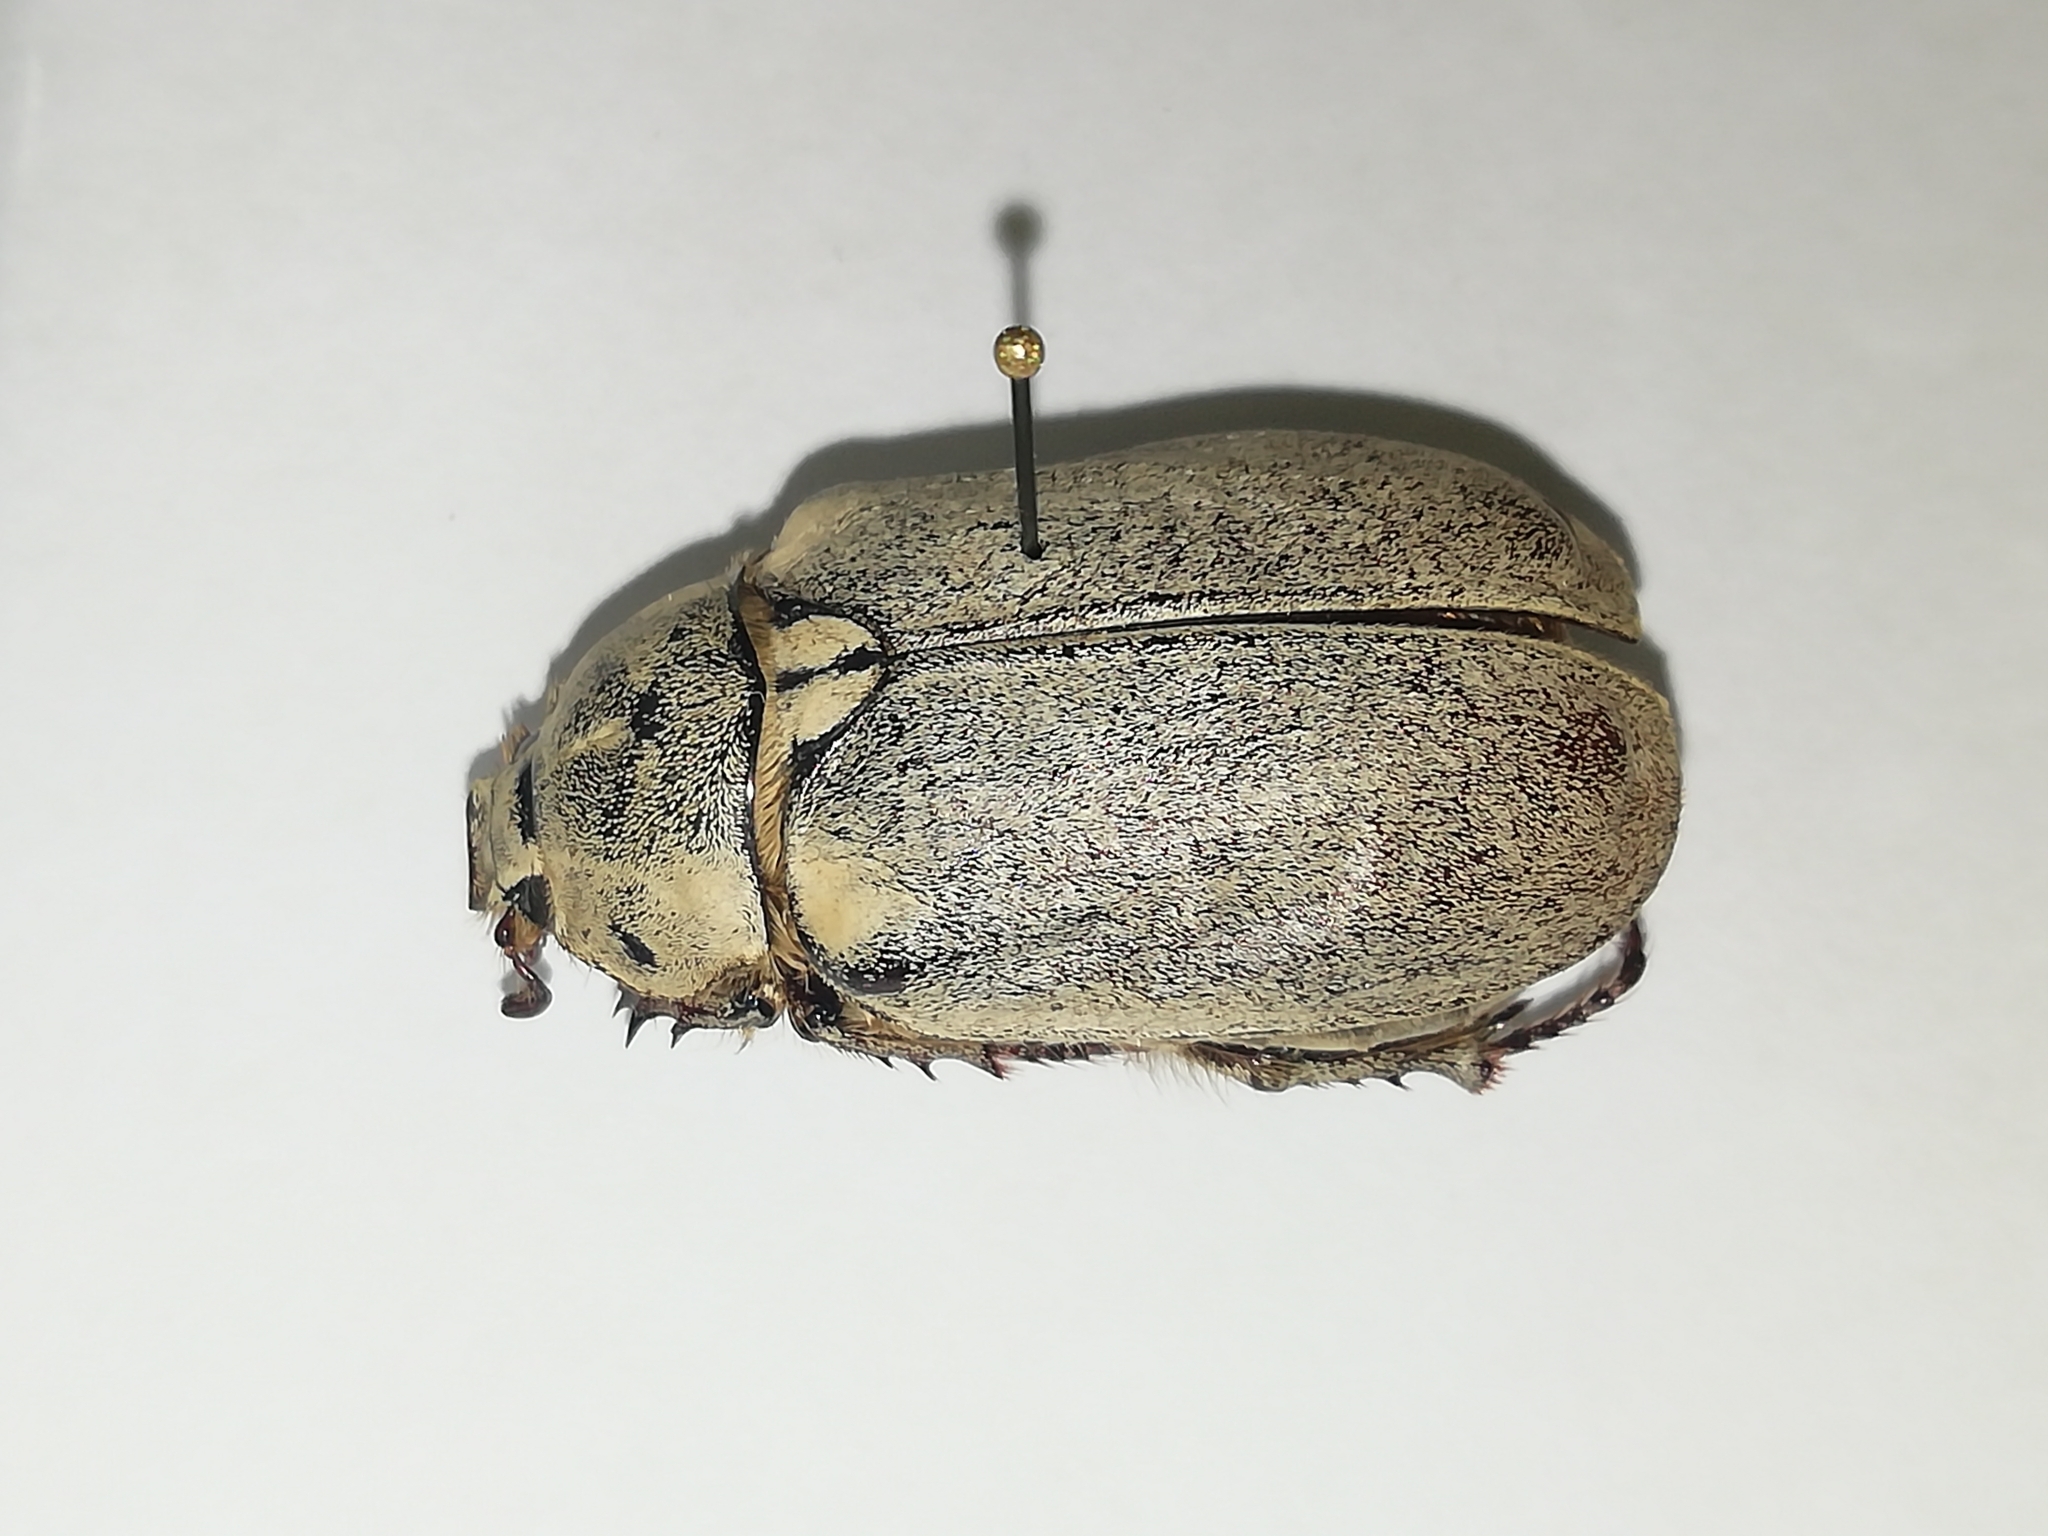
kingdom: Animalia
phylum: Arthropoda
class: Insecta
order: Coleoptera
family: Scarabaeidae
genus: Polyphylla
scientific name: Polyphylla alba
